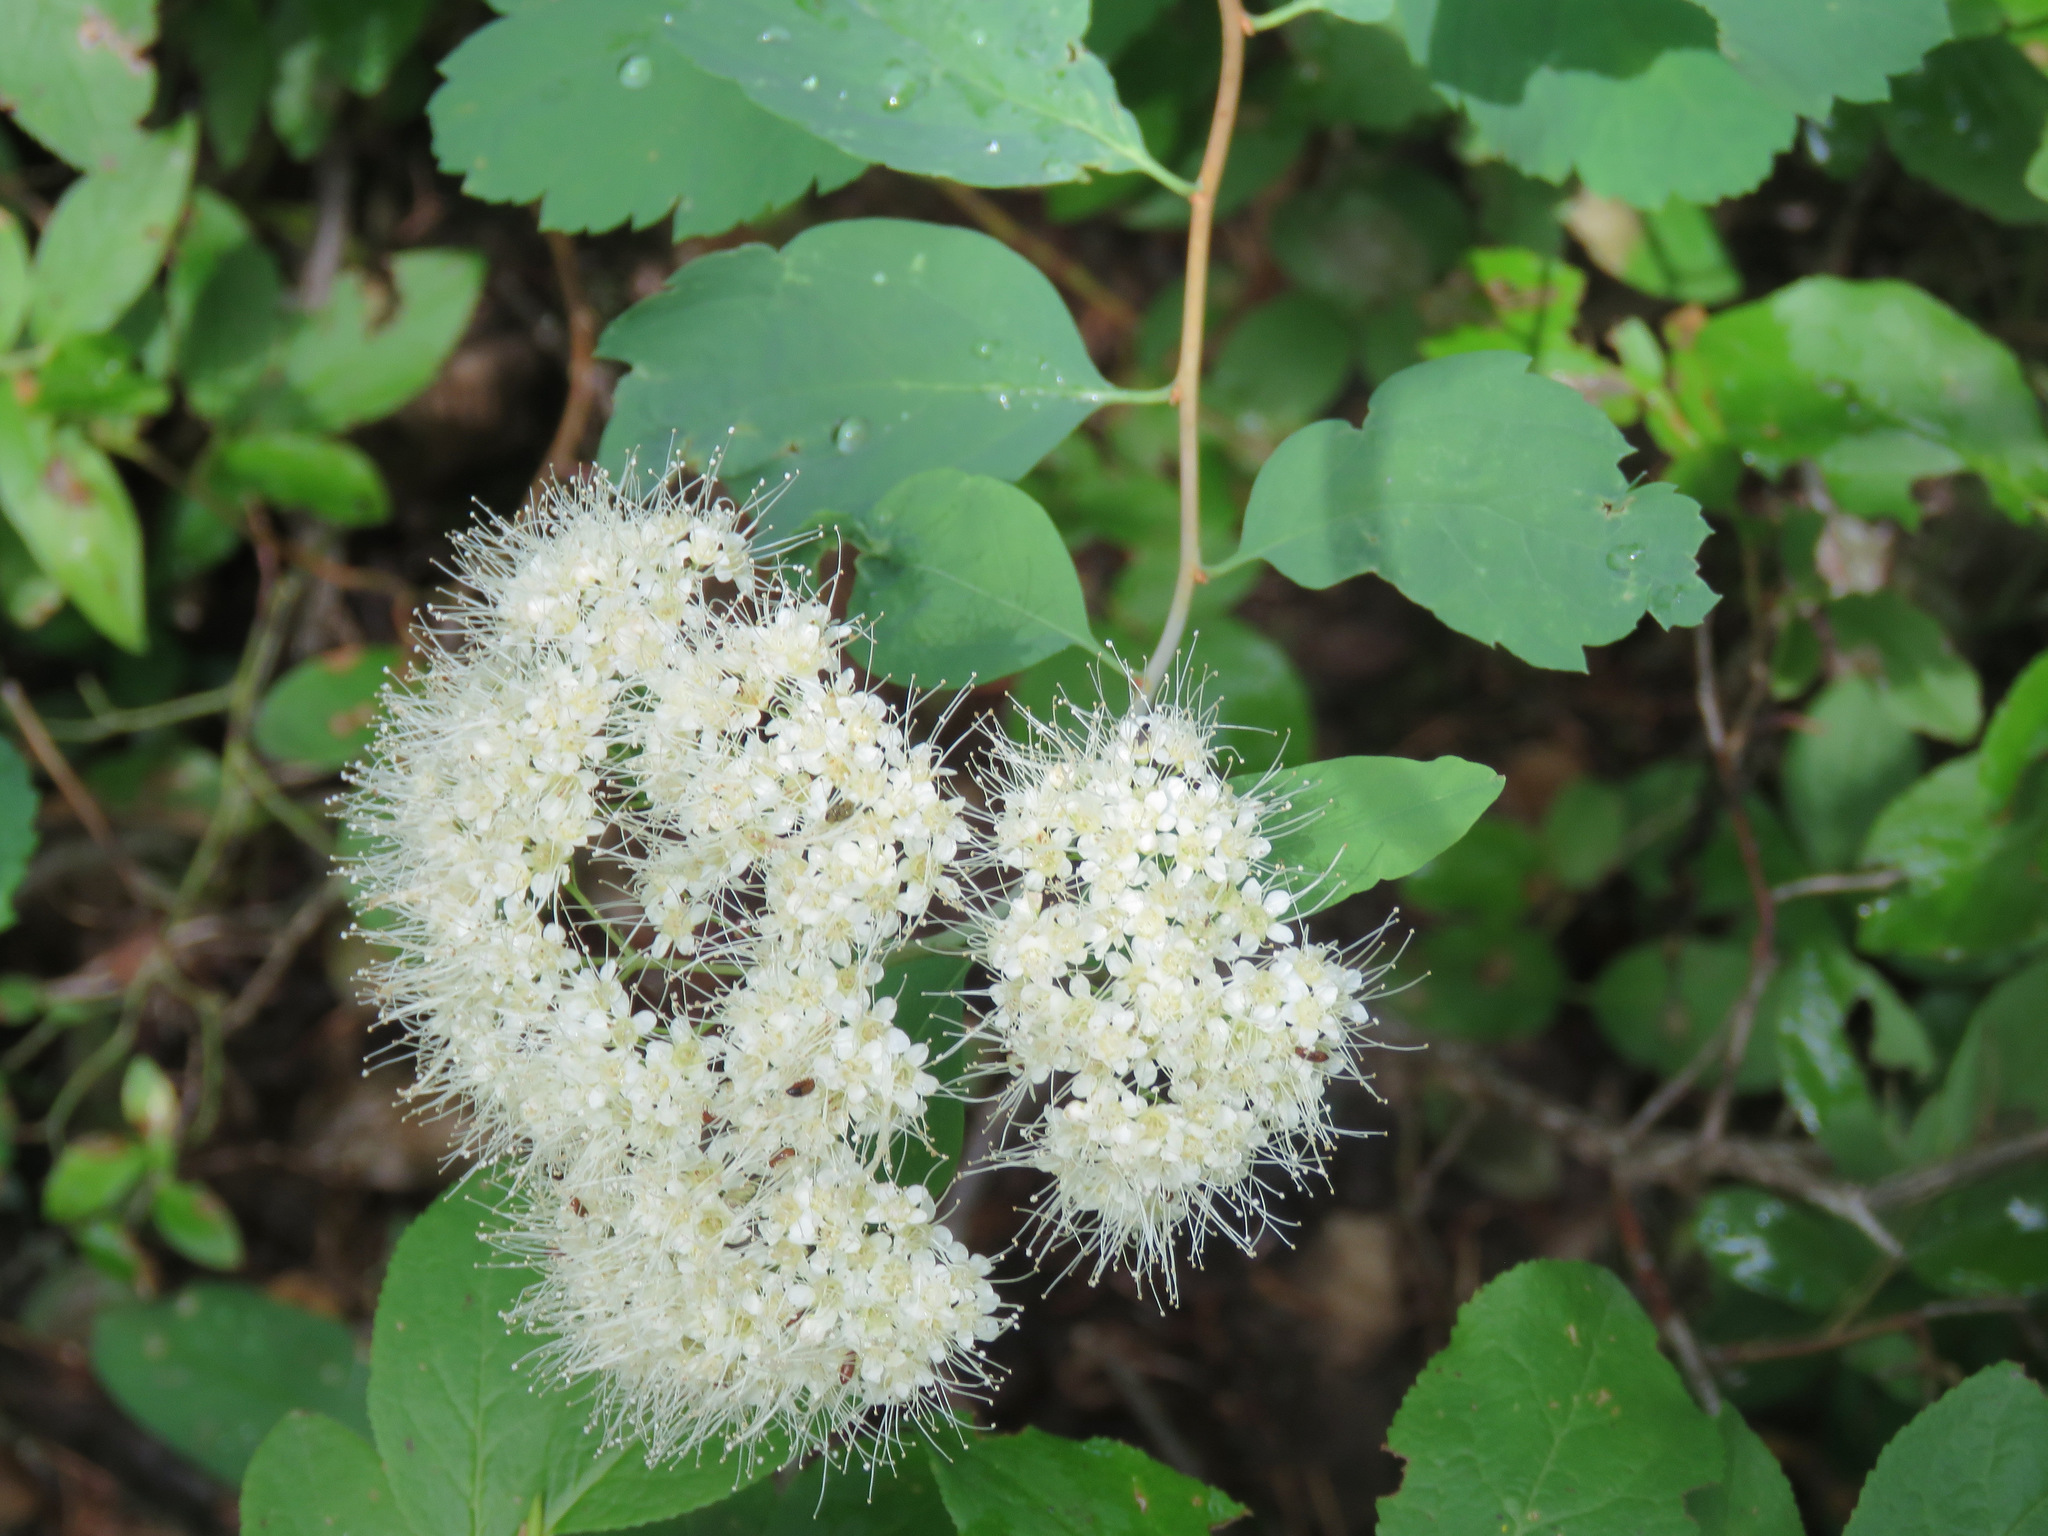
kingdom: Plantae
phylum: Tracheophyta
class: Magnoliopsida
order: Rosales
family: Rosaceae
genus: Spiraea
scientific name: Spiraea lucida
